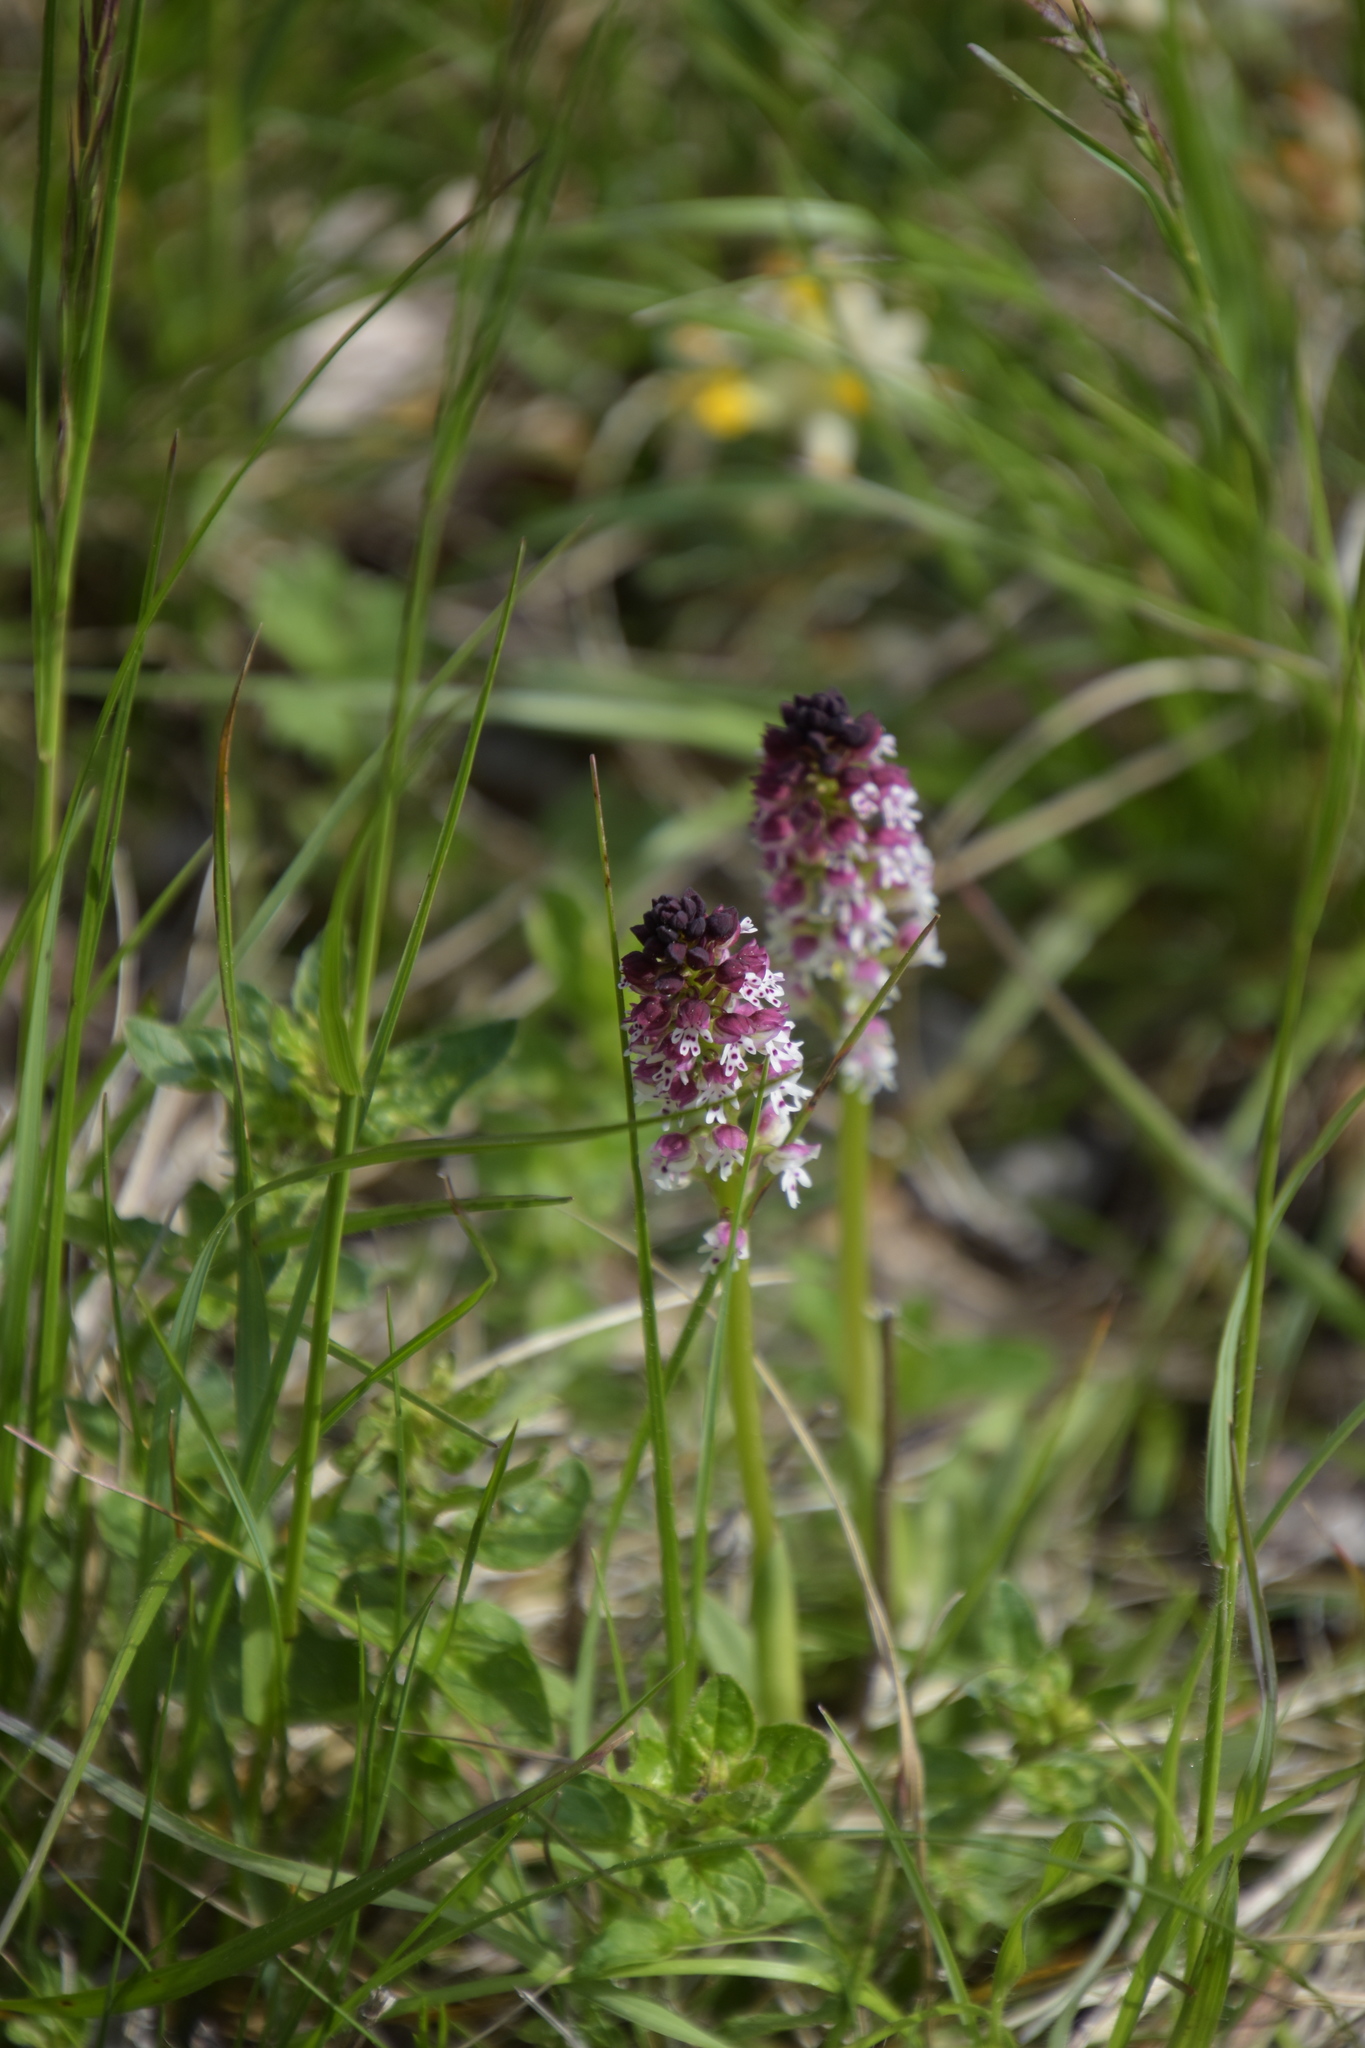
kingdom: Plantae
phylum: Tracheophyta
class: Liliopsida
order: Asparagales
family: Orchidaceae
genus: Neotinea
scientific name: Neotinea ustulata
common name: Burnt orchid
